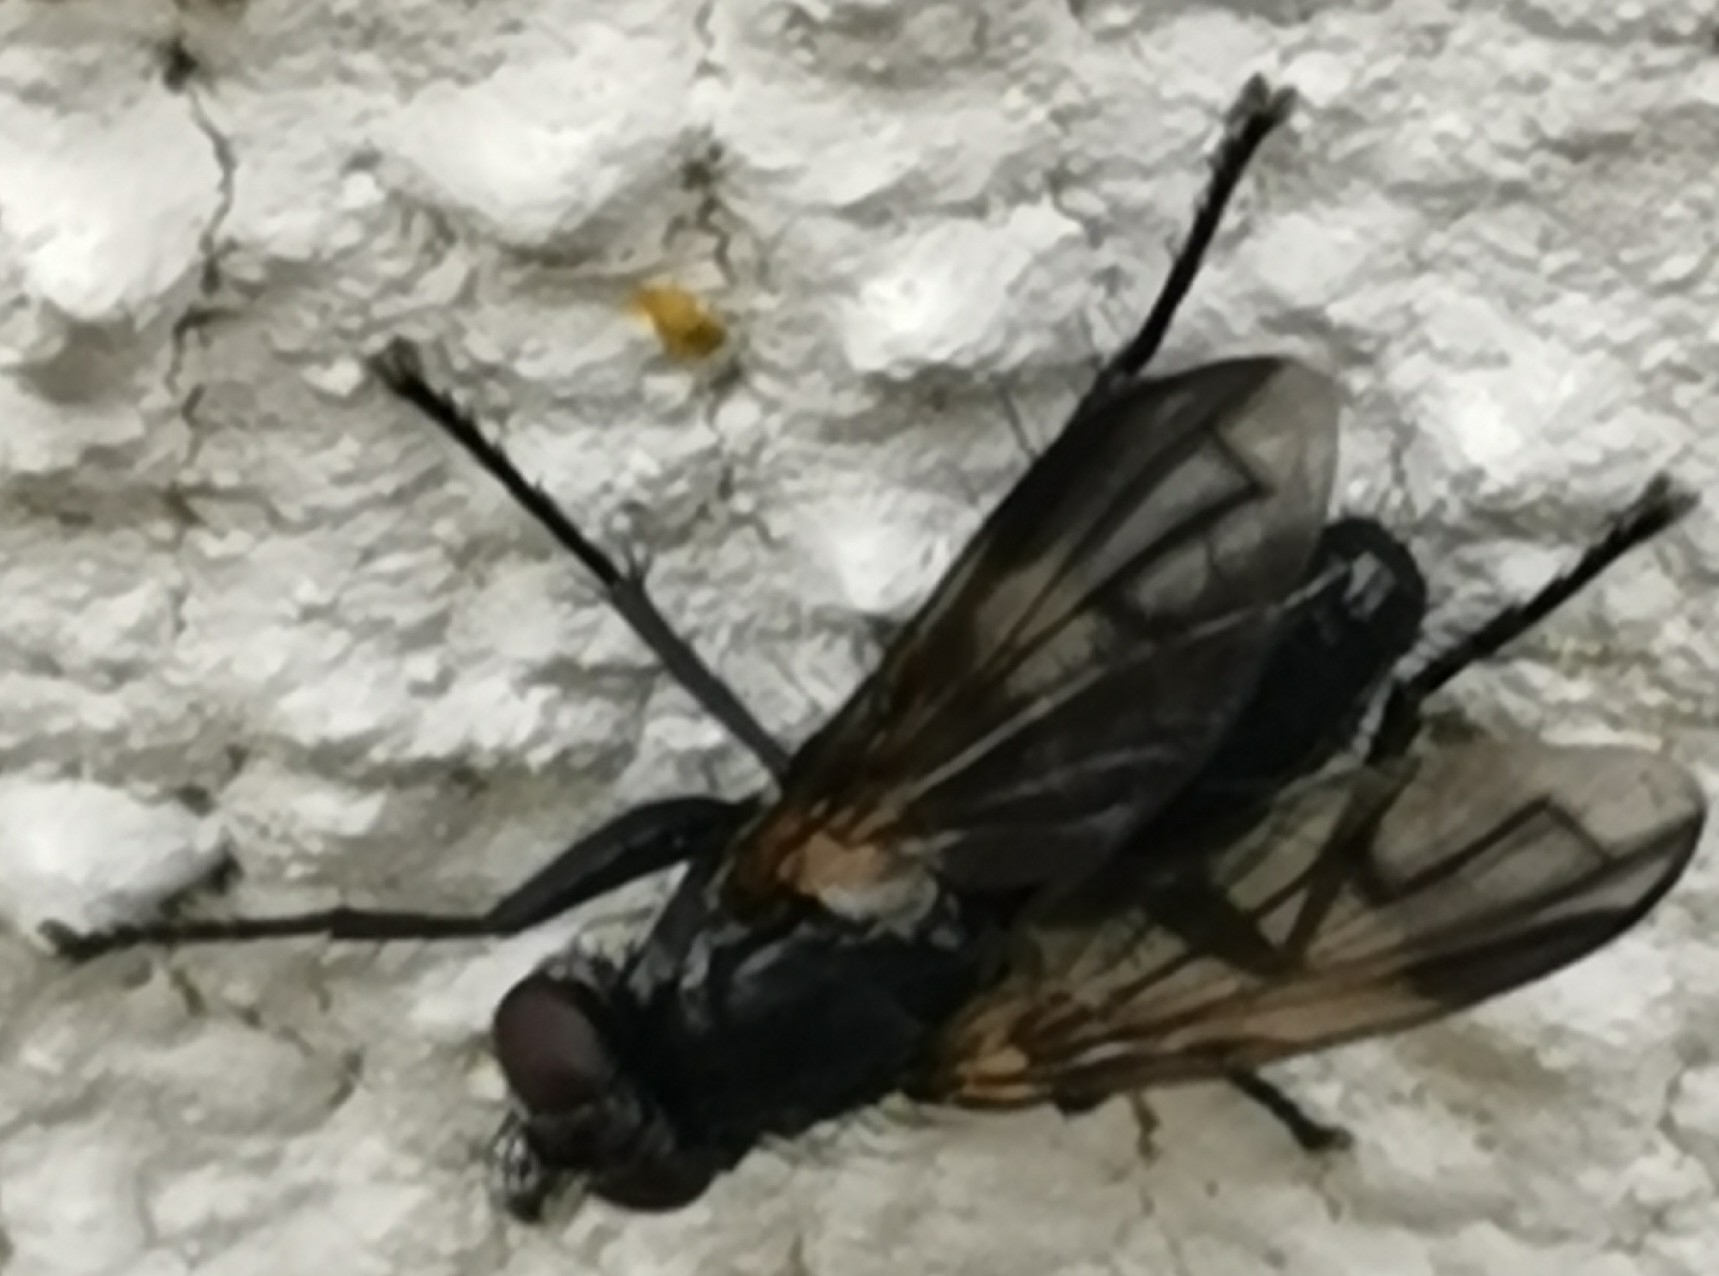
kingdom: Animalia
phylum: Arthropoda
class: Insecta
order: Diptera
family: Calliphoridae
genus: Paykullia
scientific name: Paykullia maculata
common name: Picture-winged woodlouse-fly
